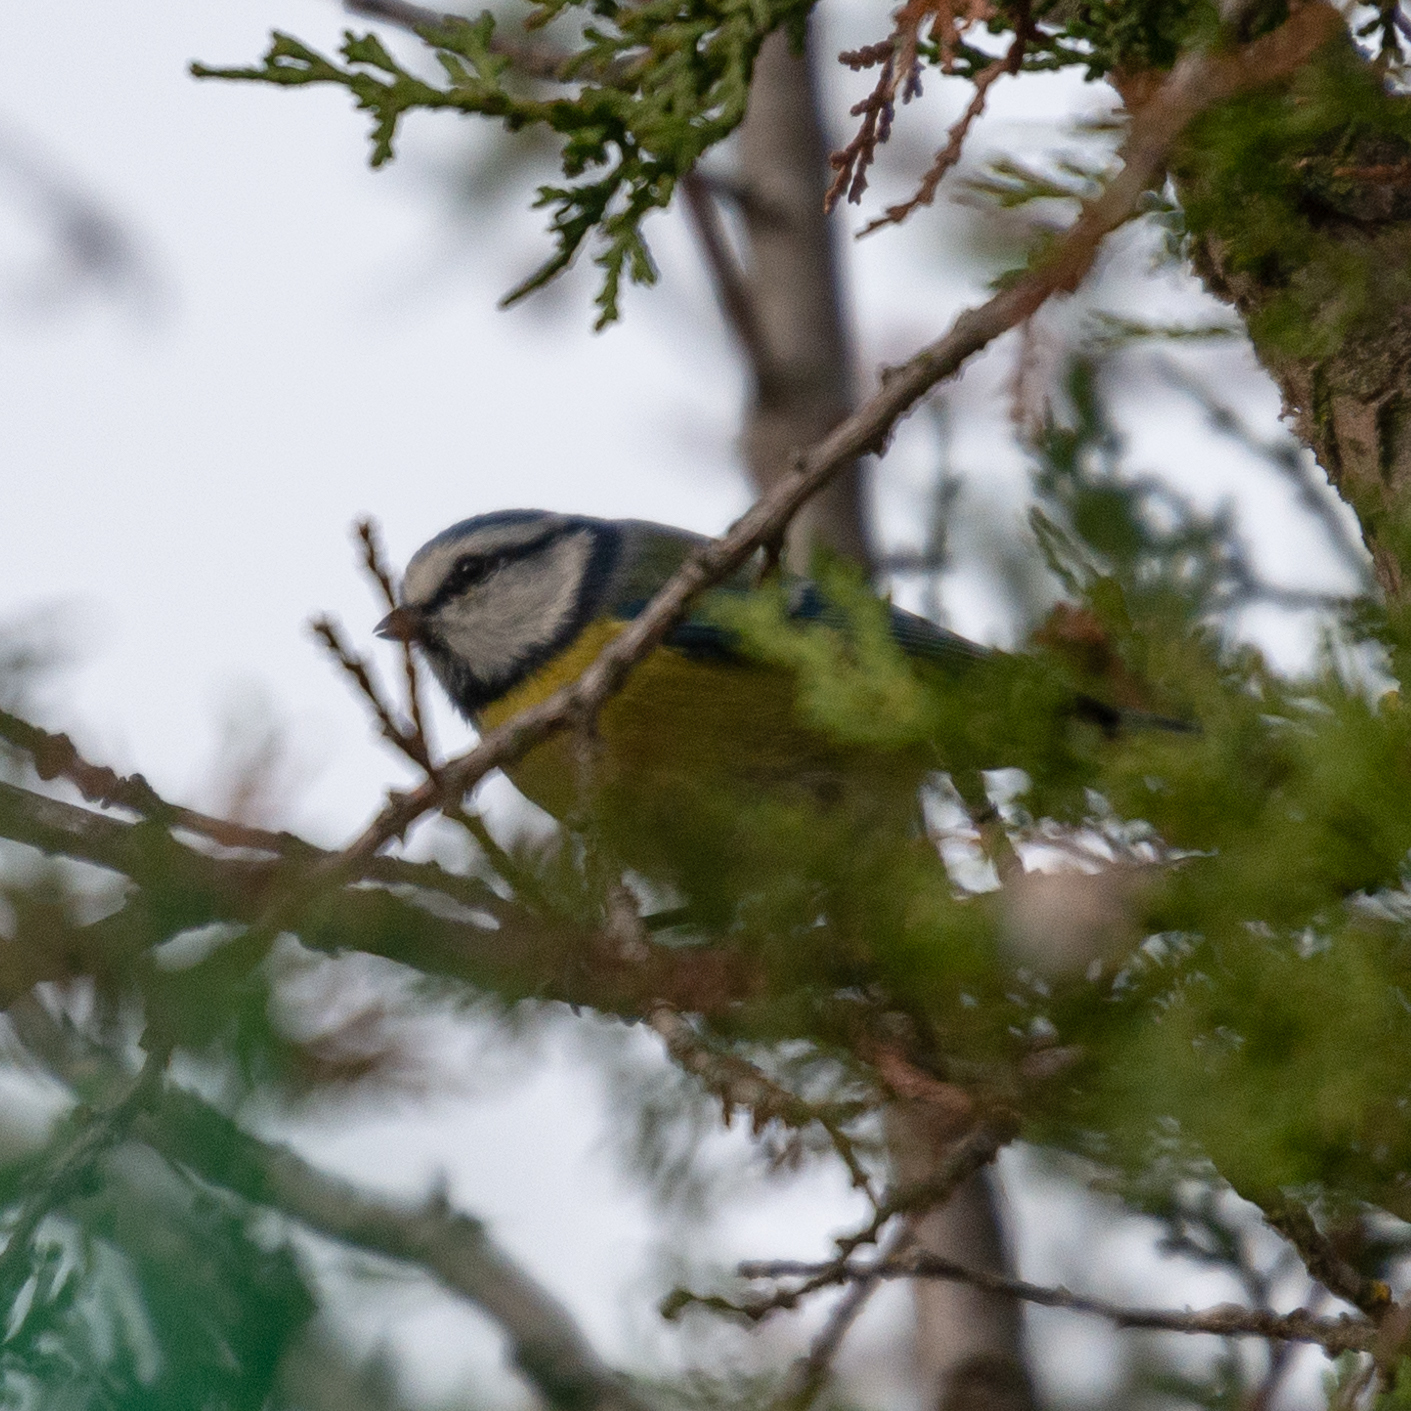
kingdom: Animalia
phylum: Chordata
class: Aves
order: Passeriformes
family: Paridae
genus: Cyanistes
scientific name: Cyanistes caeruleus
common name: Eurasian blue tit
